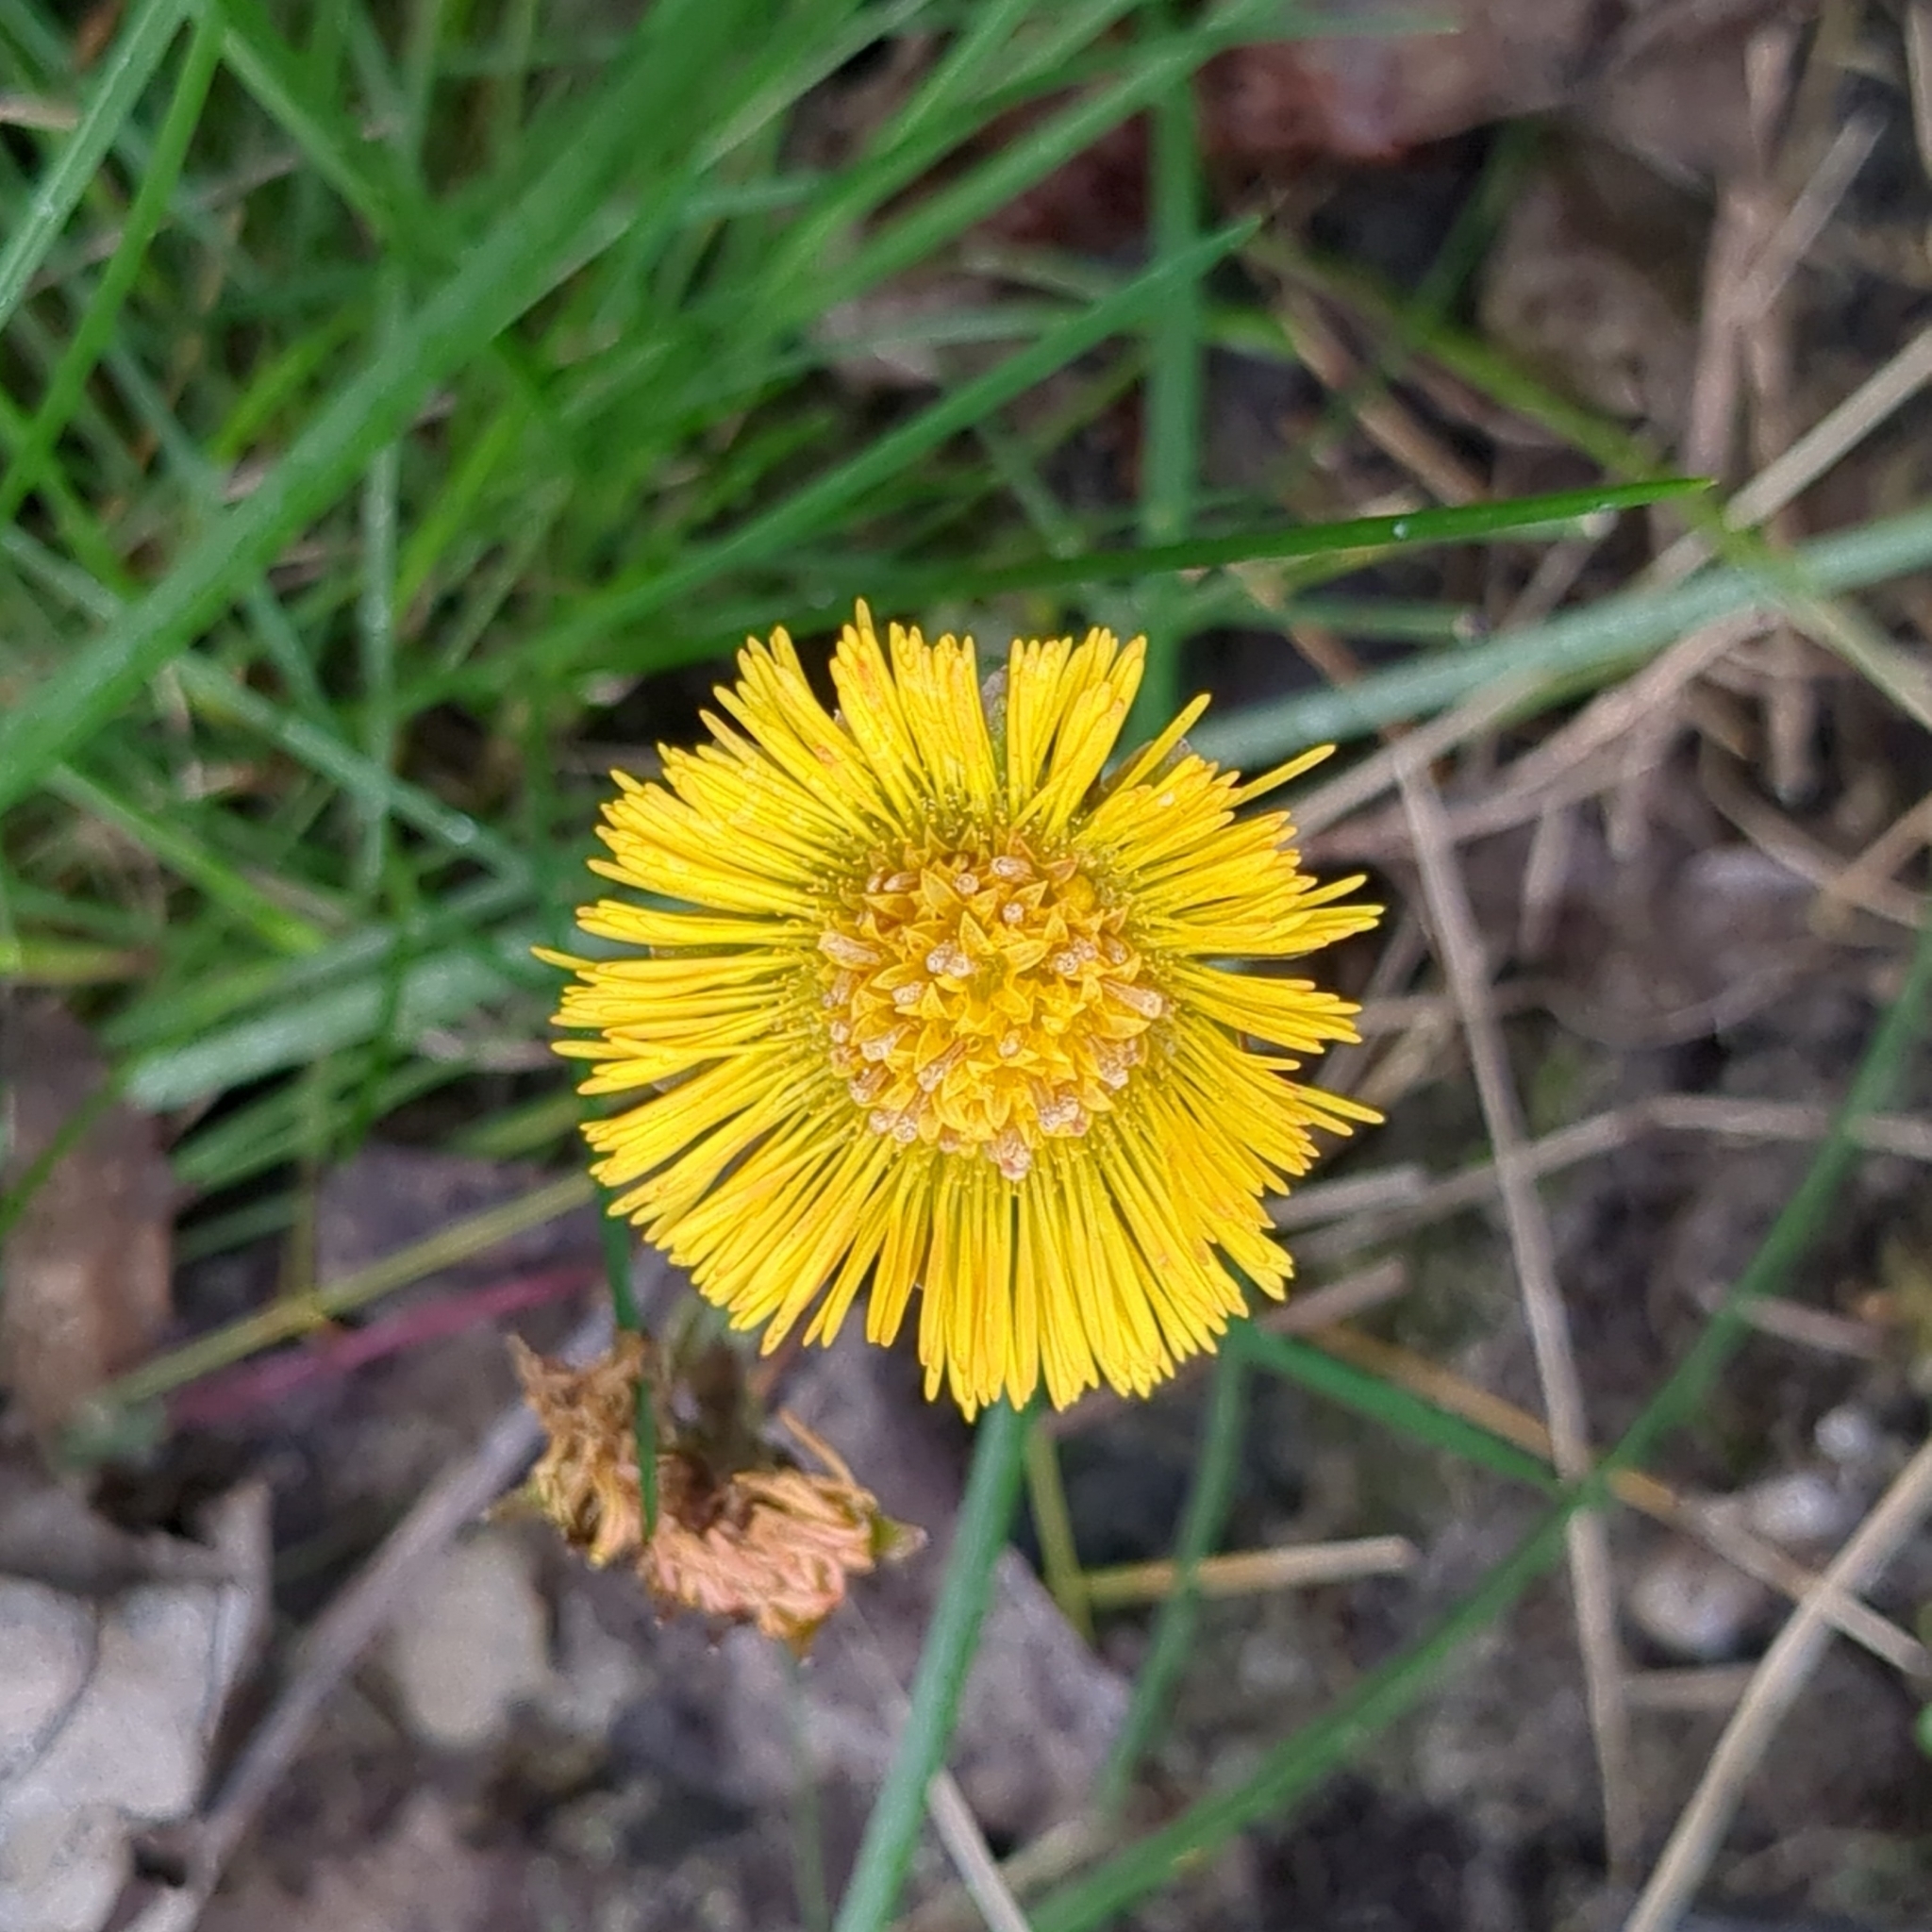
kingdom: Plantae
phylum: Tracheophyta
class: Magnoliopsida
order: Asterales
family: Asteraceae
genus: Tussilago
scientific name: Tussilago farfara
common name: Coltsfoot
